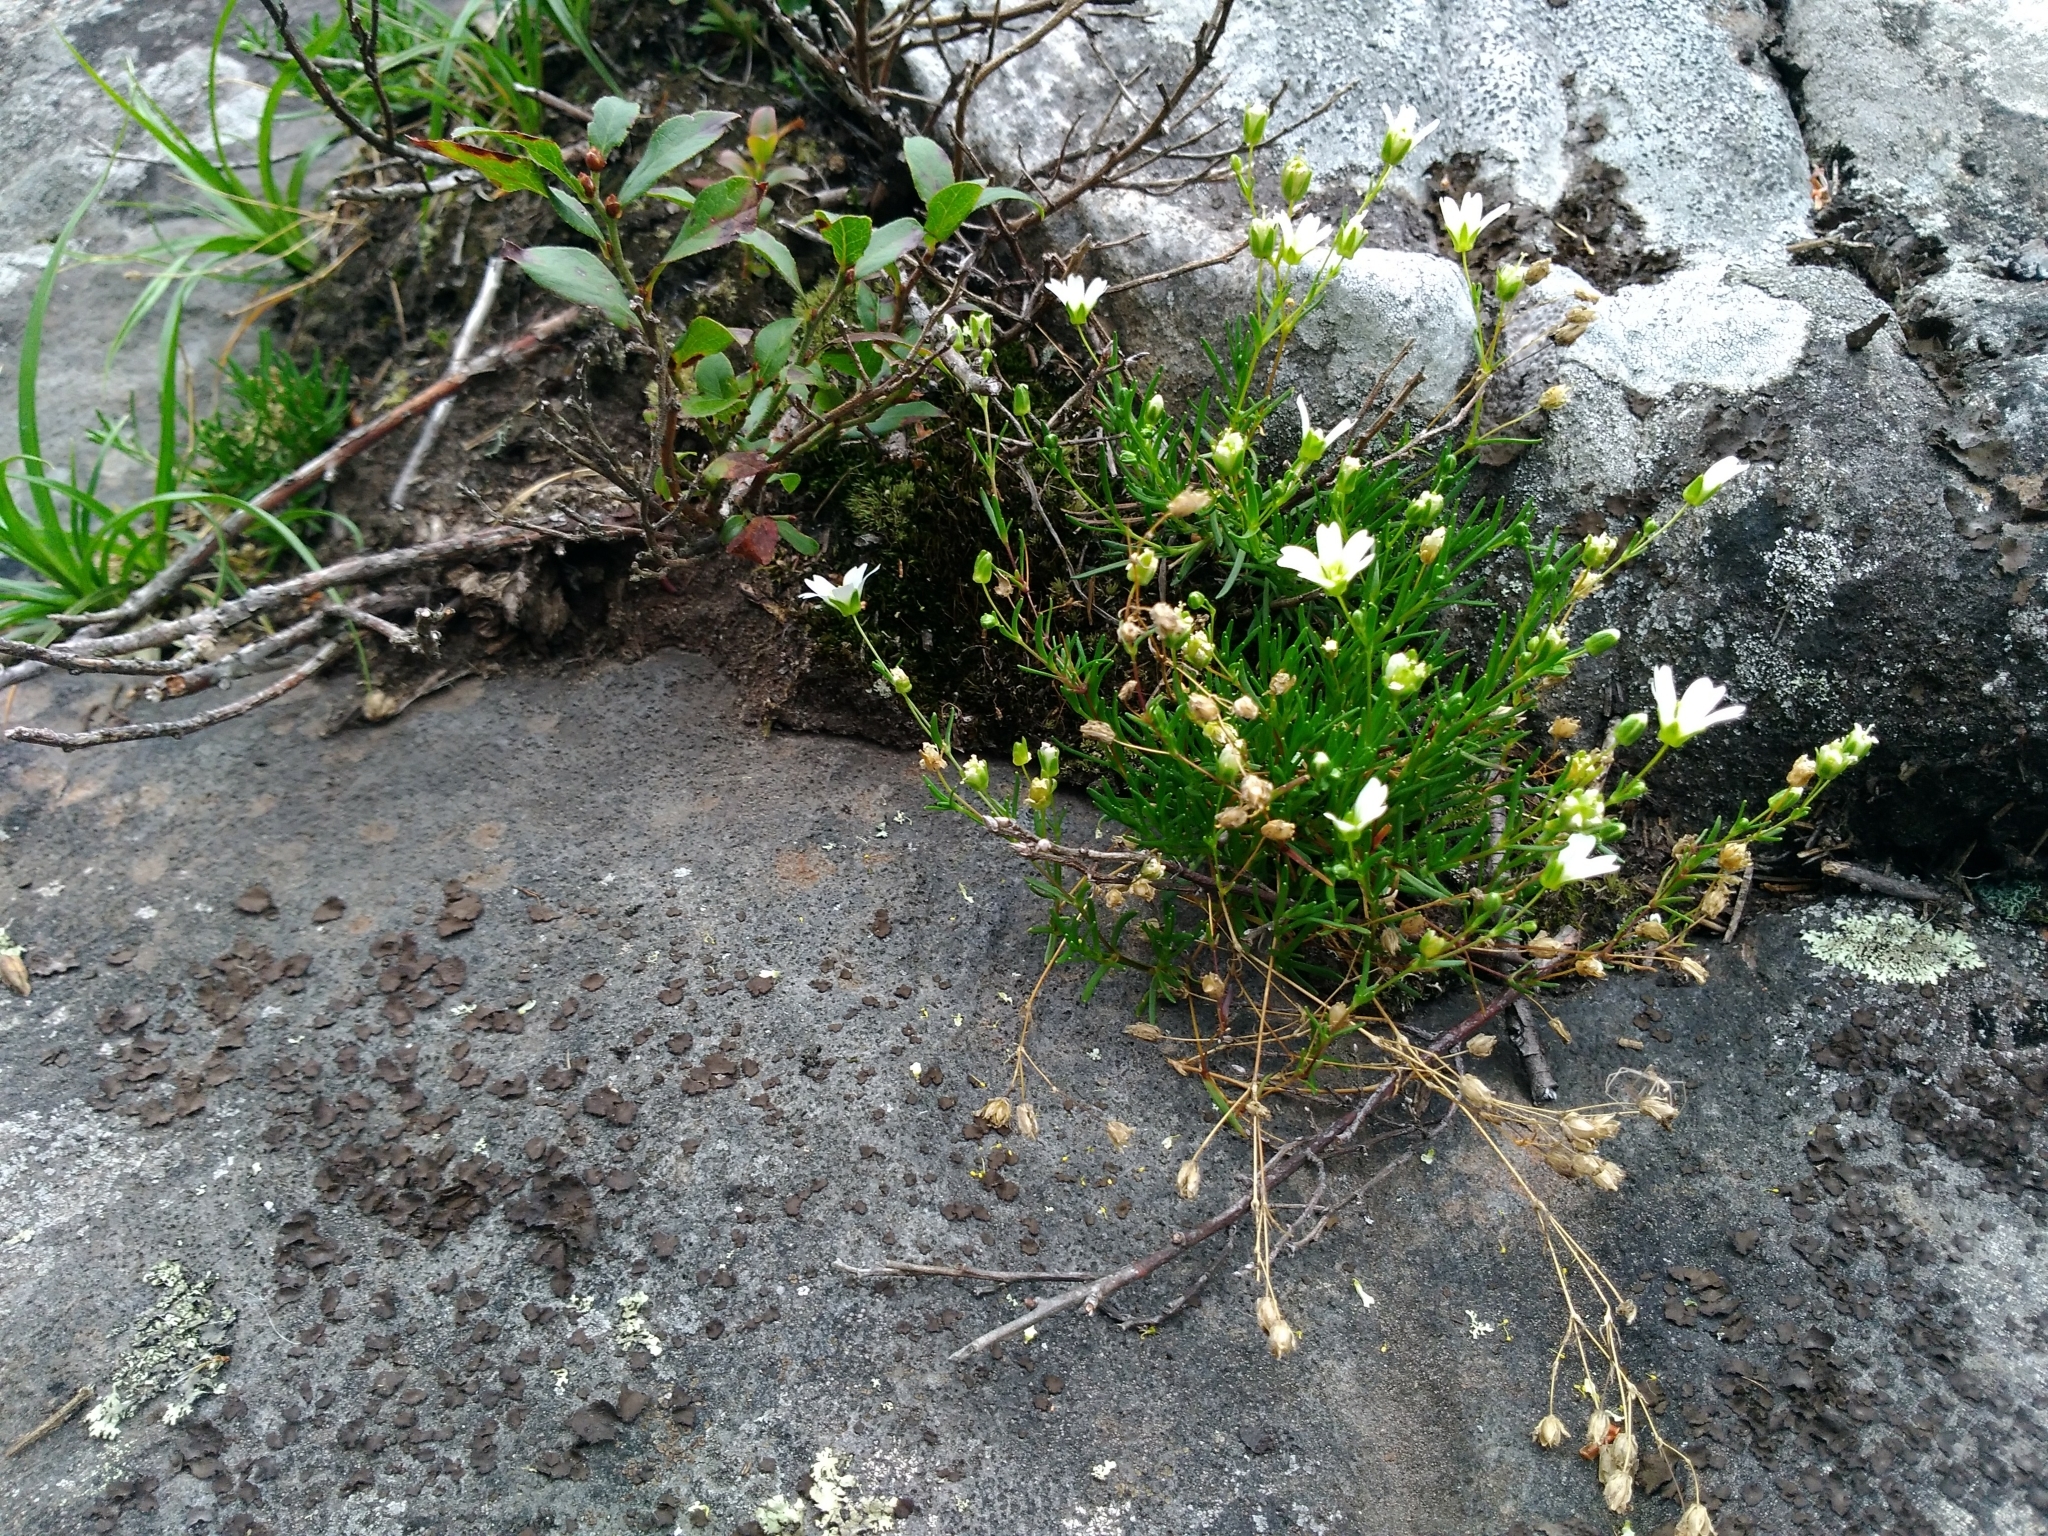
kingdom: Plantae
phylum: Tracheophyta
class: Magnoliopsida
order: Caryophyllales
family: Caryophyllaceae
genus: Geocarpon
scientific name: Geocarpon groenlandicum
